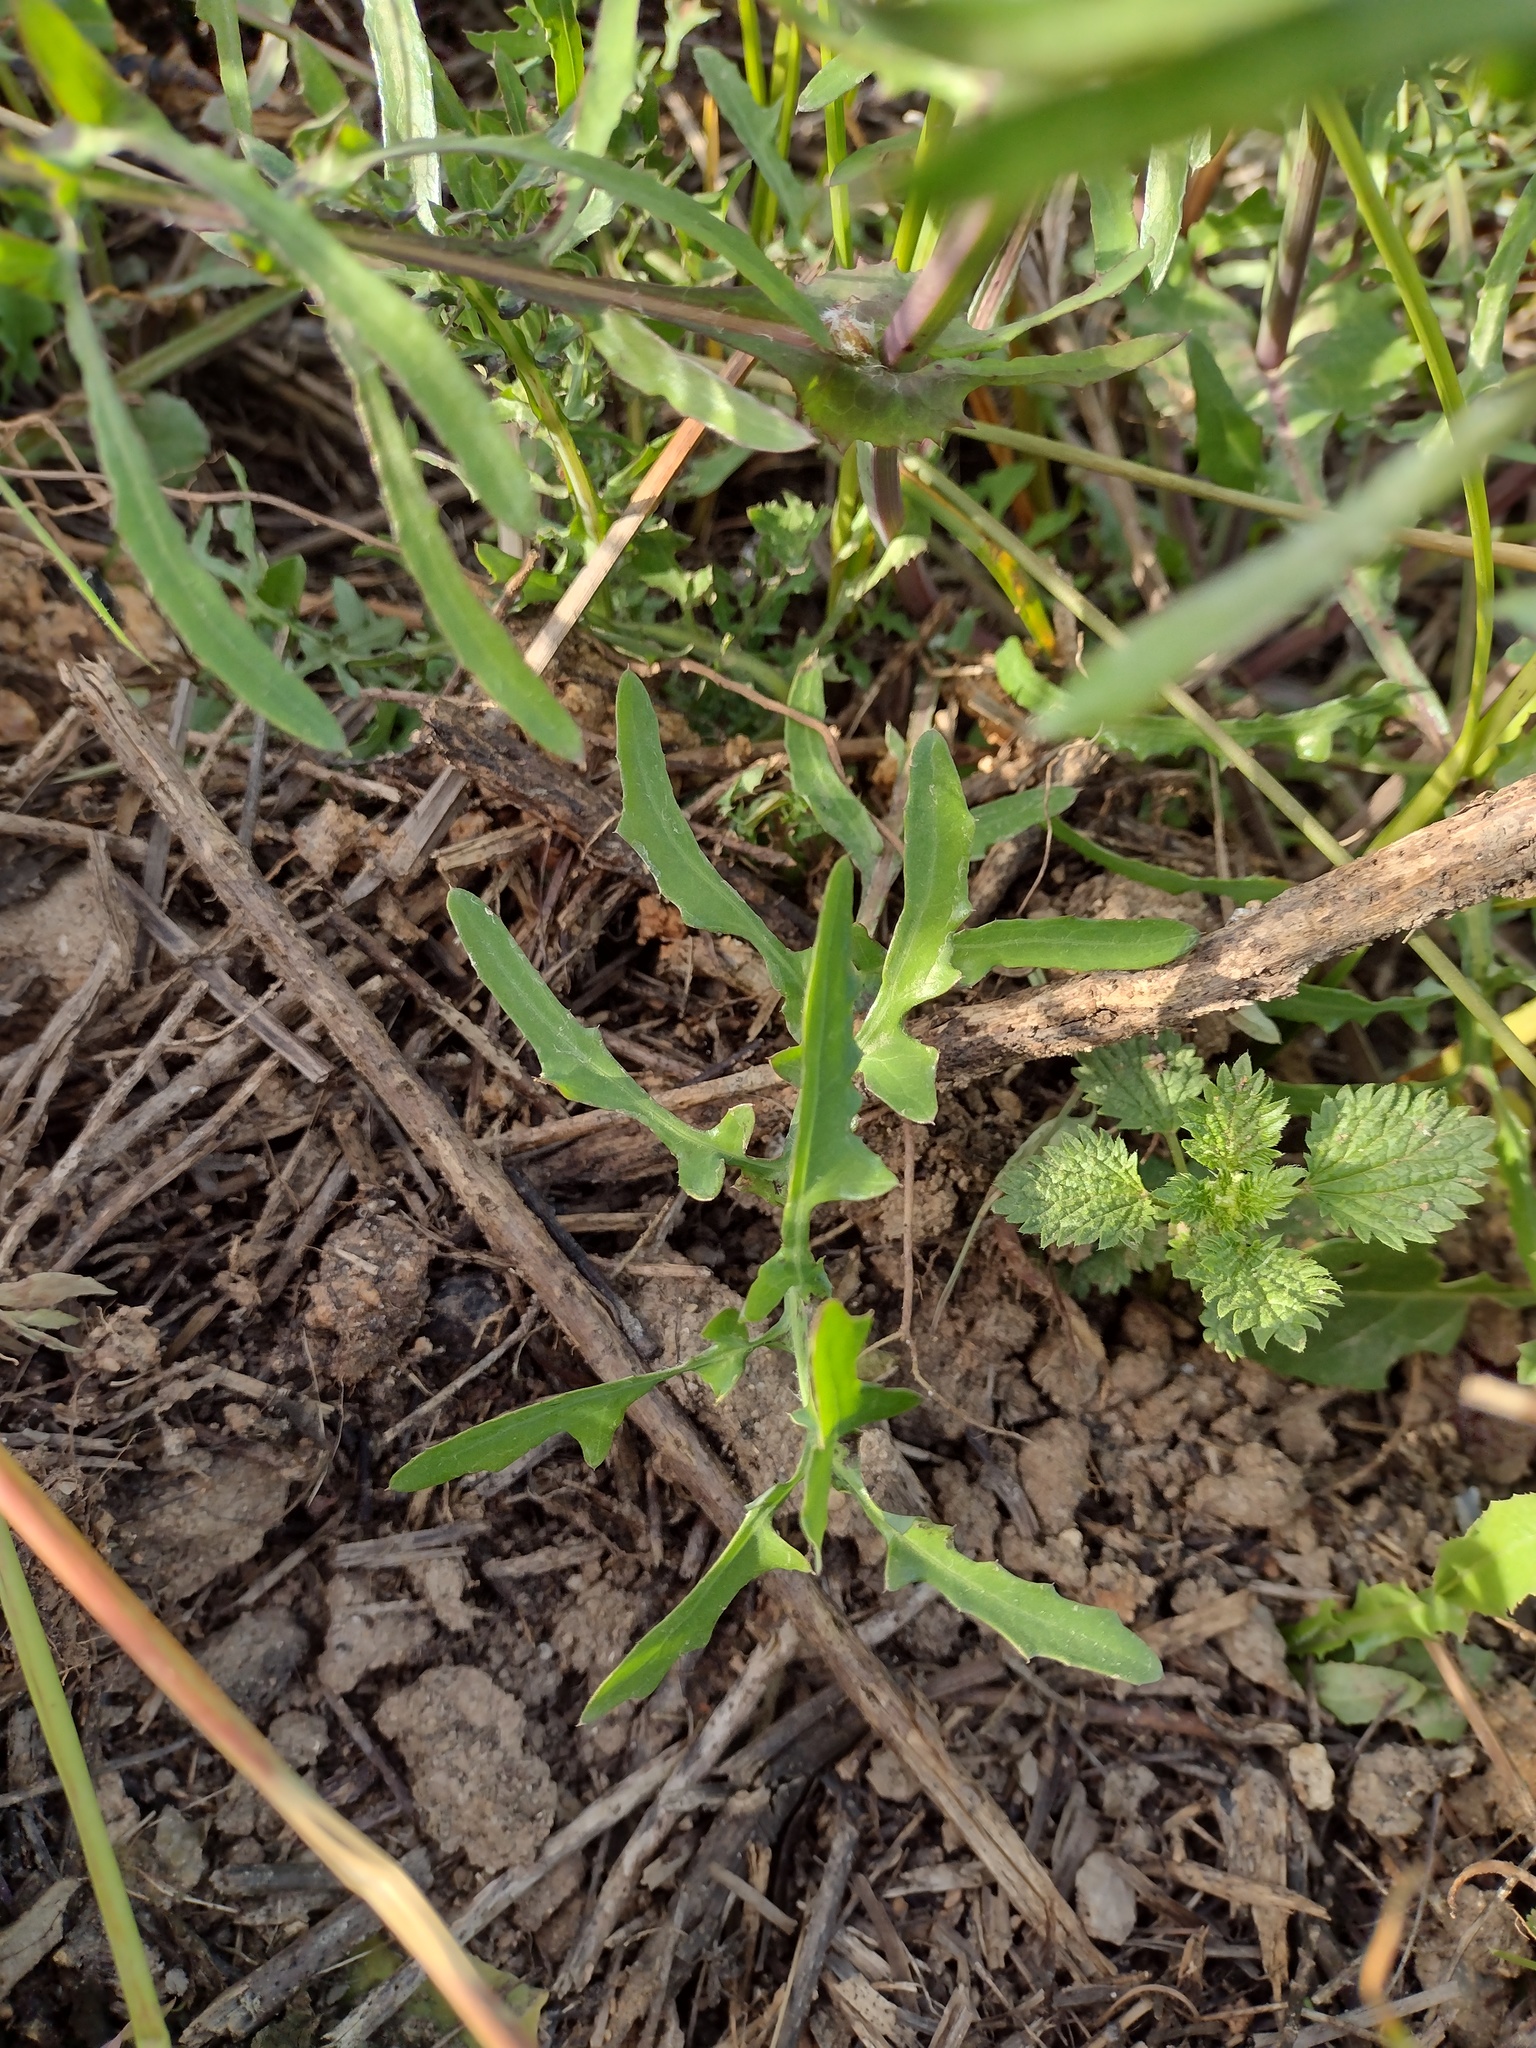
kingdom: Plantae
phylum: Tracheophyta
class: Magnoliopsida
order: Asterales
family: Asteraceae
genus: Sonchus
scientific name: Sonchus tenerrimus
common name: Clammy sowthistle
